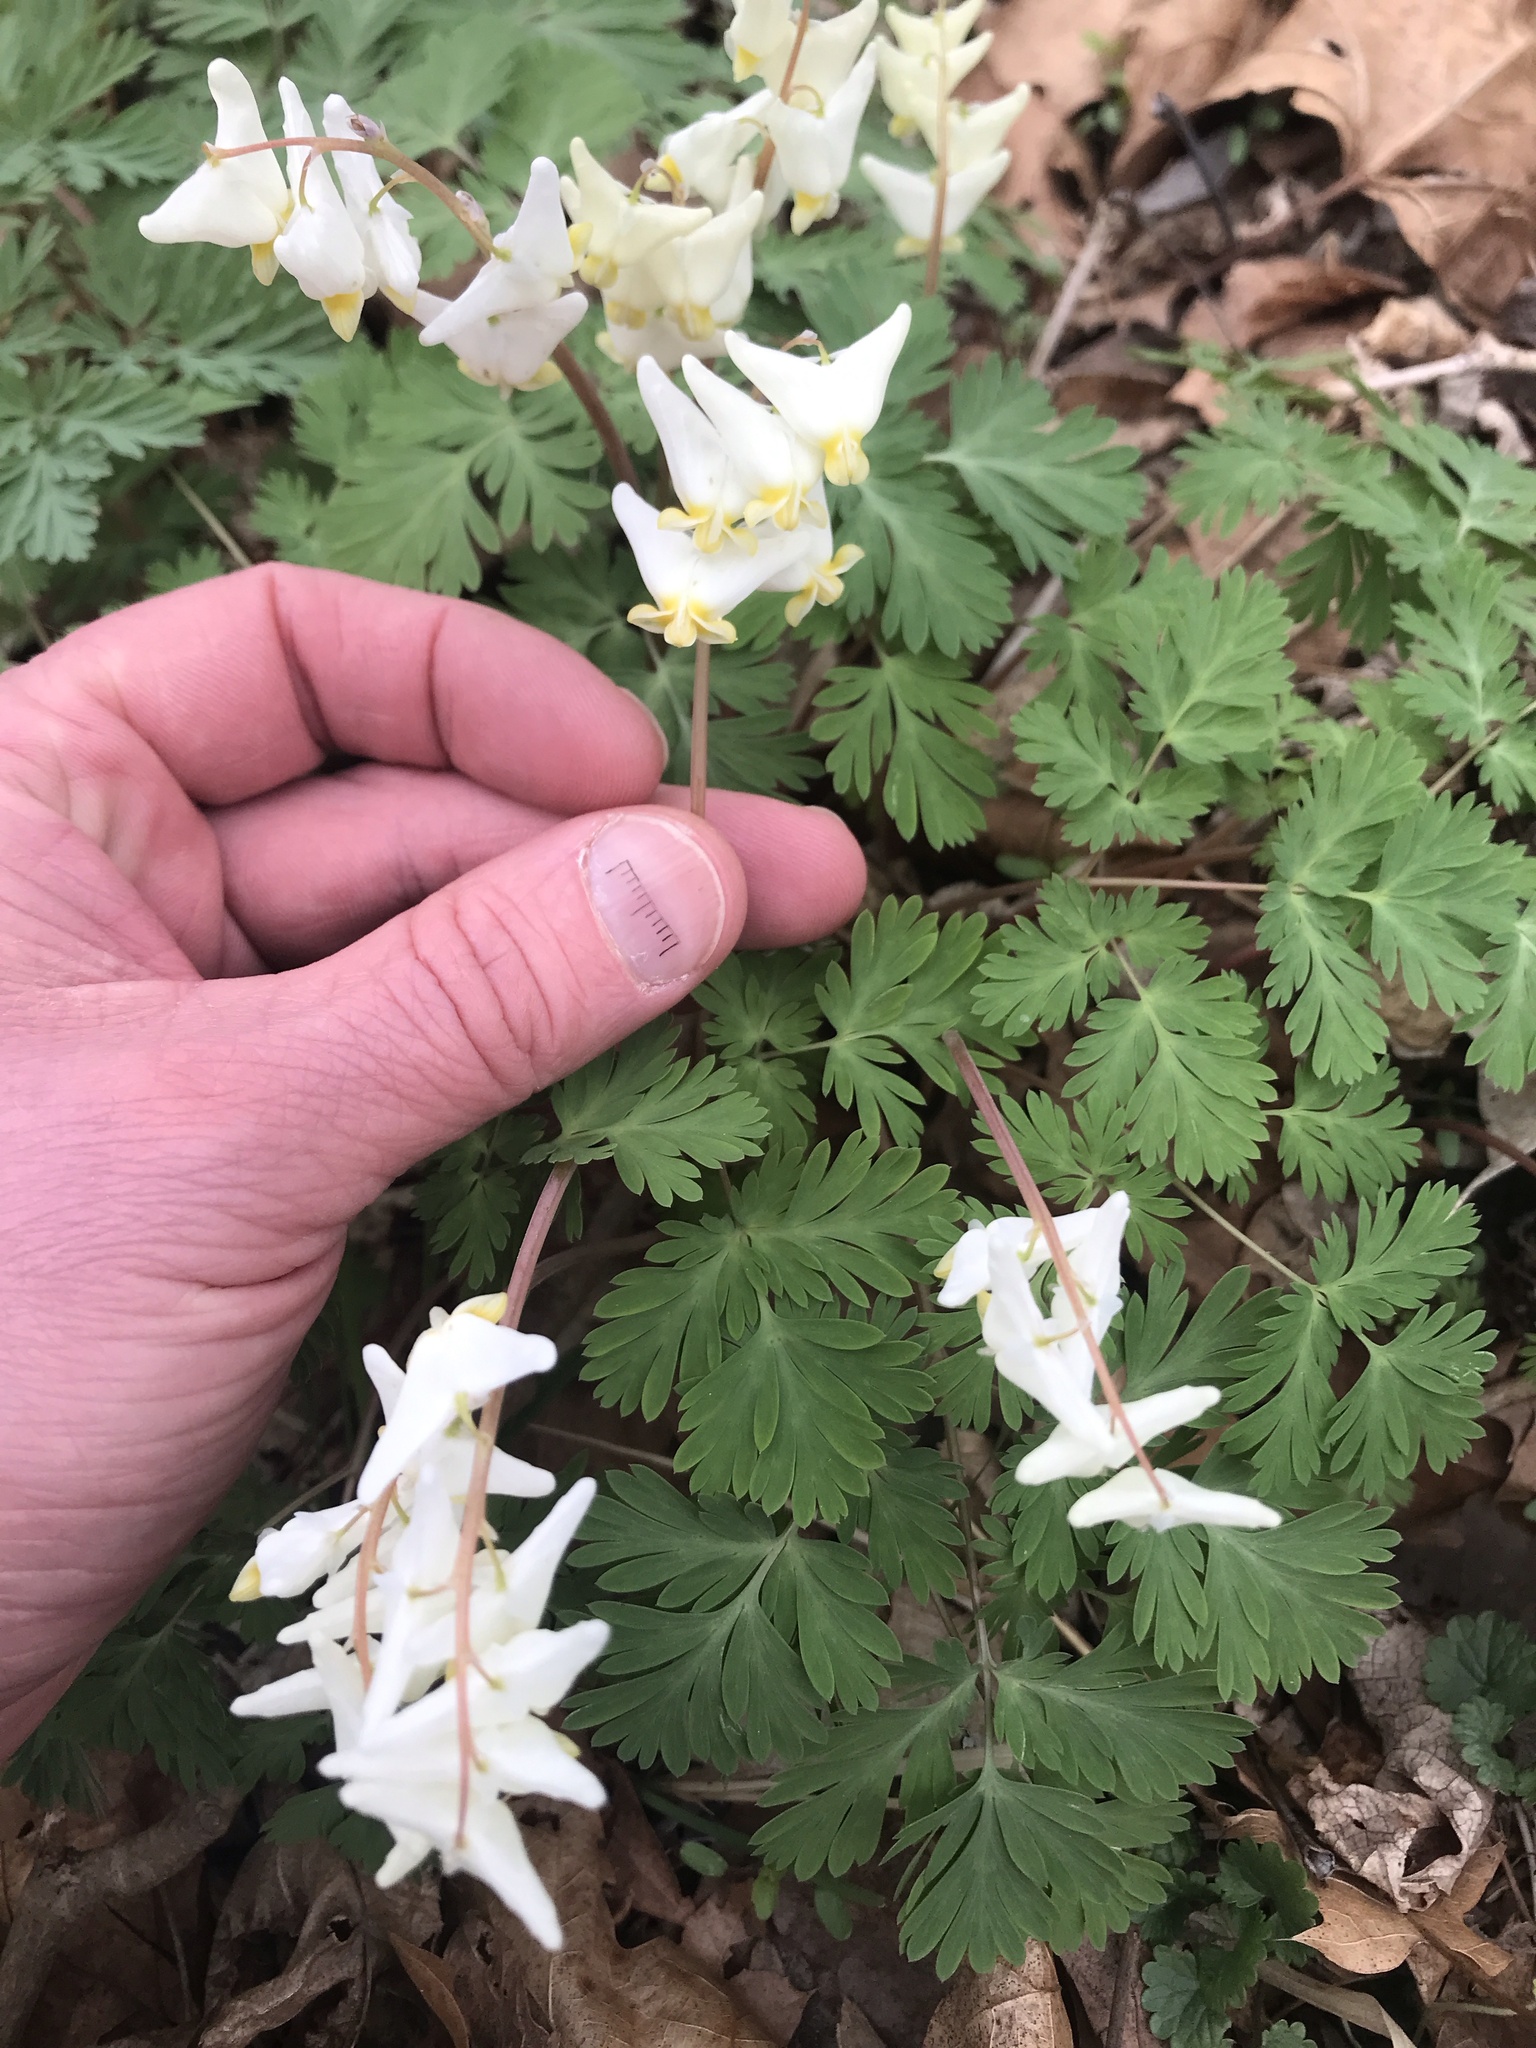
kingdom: Plantae
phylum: Tracheophyta
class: Magnoliopsida
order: Ranunculales
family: Papaveraceae
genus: Dicentra
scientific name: Dicentra cucullaria
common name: Dutchman's breeches
